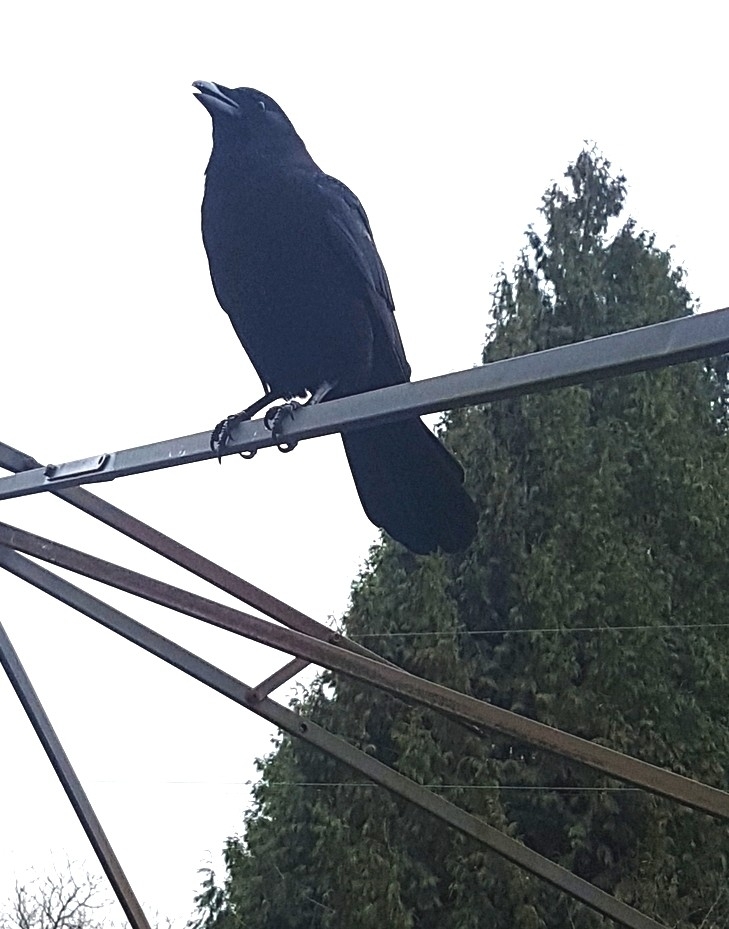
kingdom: Animalia
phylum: Chordata
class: Aves
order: Passeriformes
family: Corvidae
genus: Corvus
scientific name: Corvus brachyrhynchos
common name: American crow
